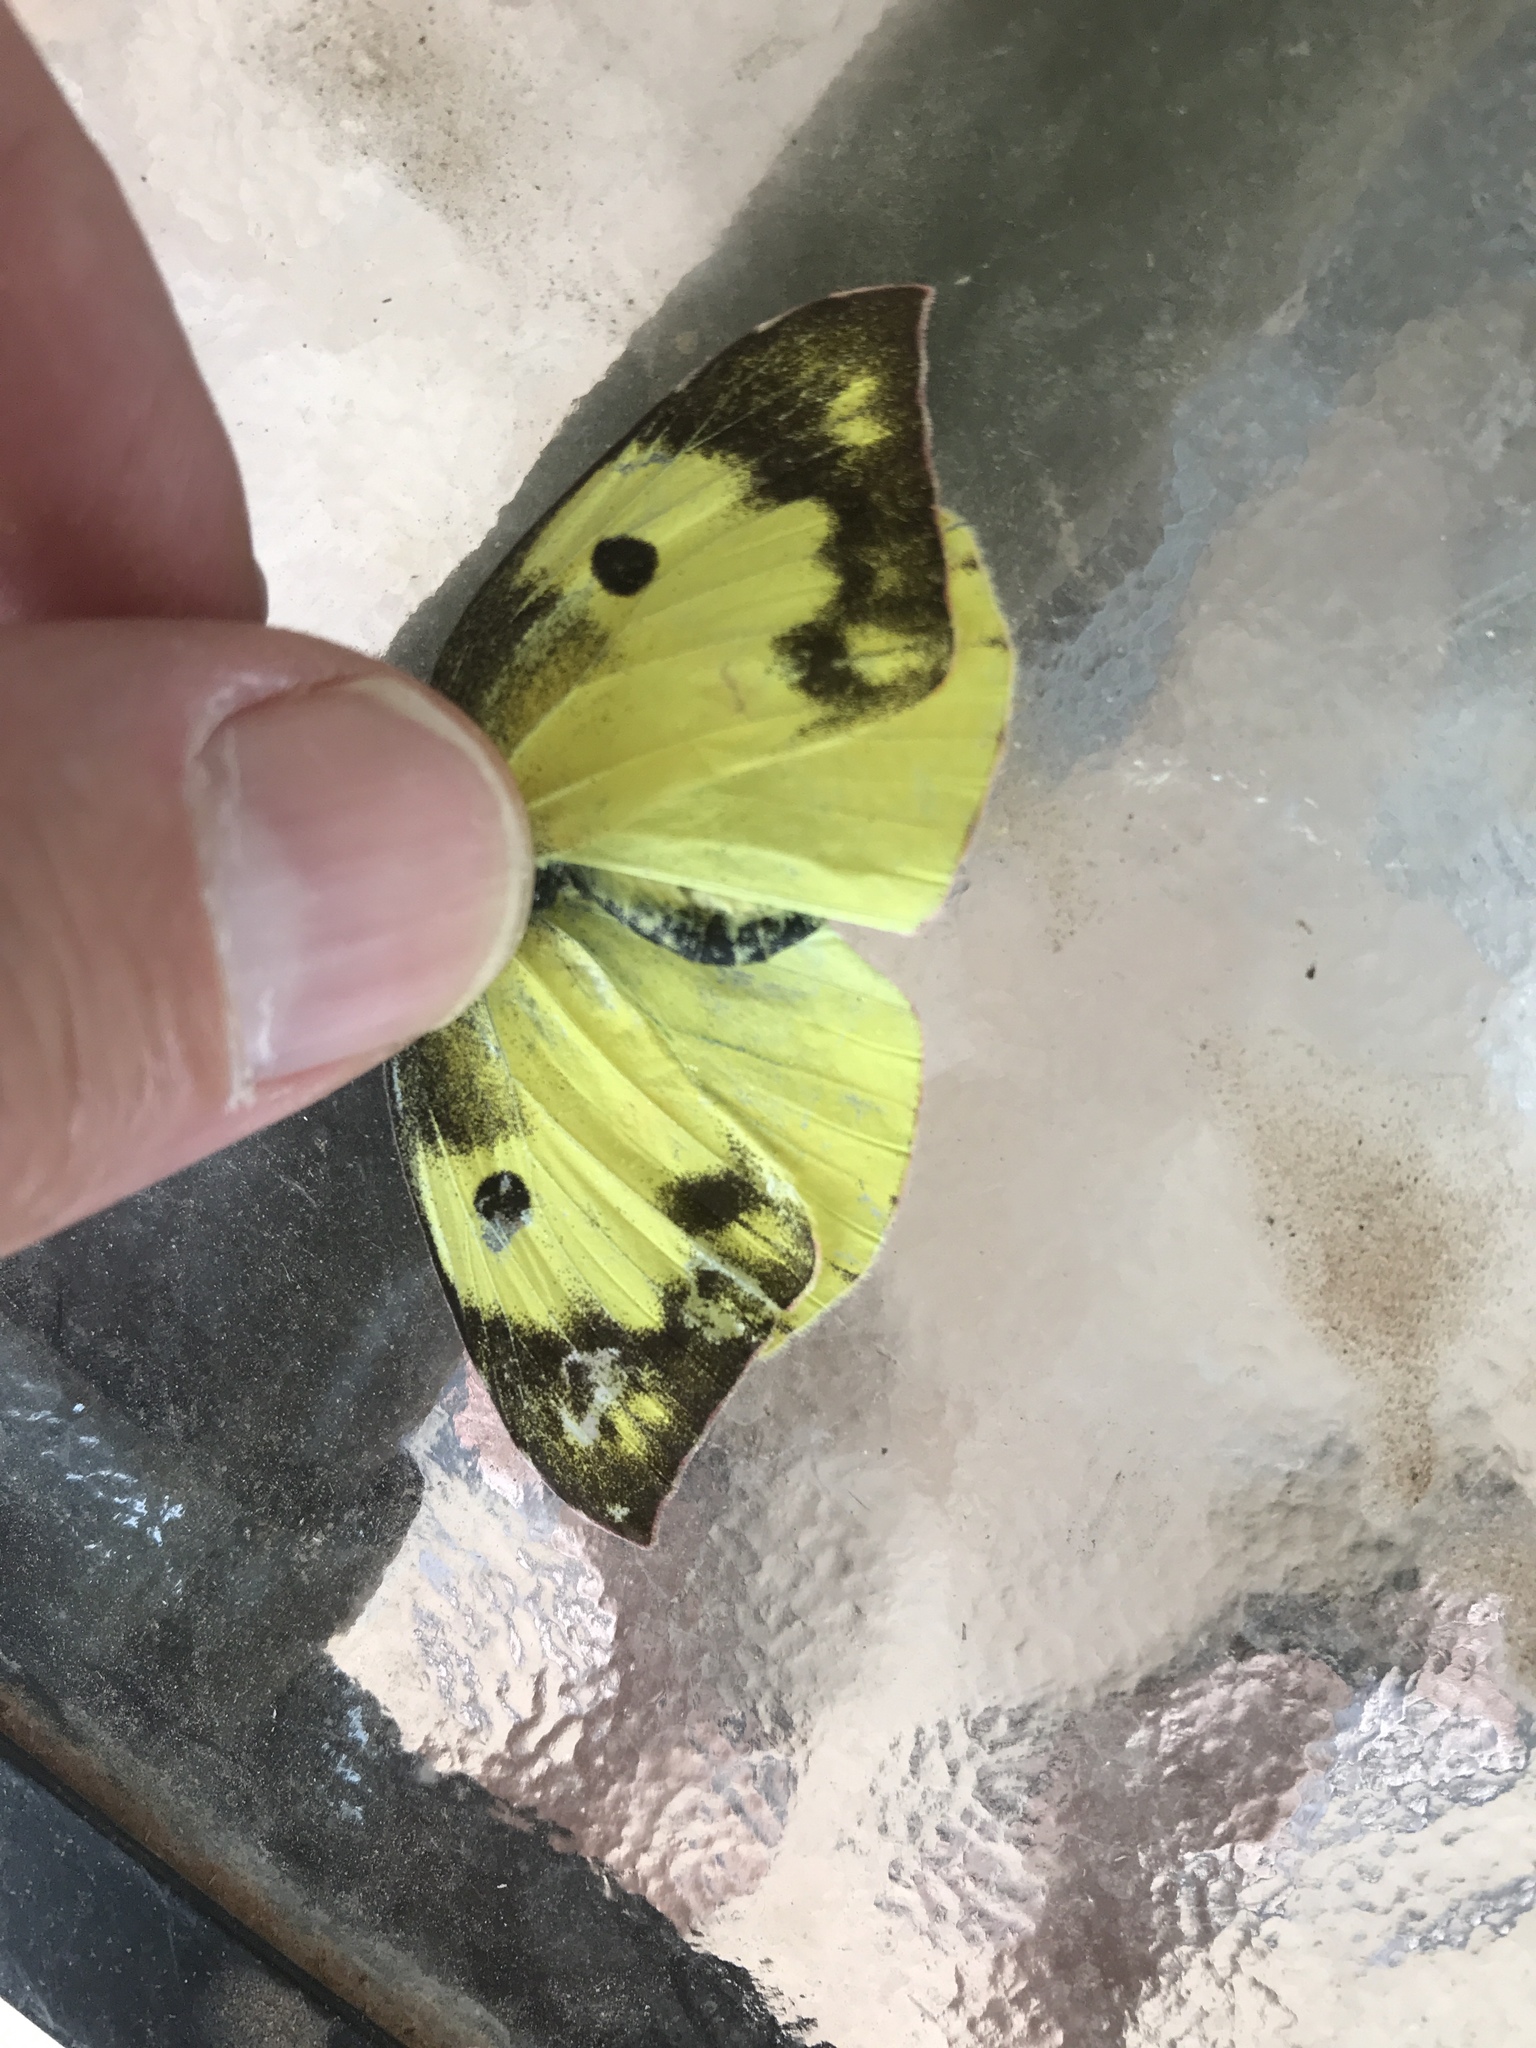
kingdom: Animalia
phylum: Arthropoda
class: Insecta
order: Lepidoptera
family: Pieridae
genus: Zerene
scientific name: Zerene cesonia
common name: Southern dogface
